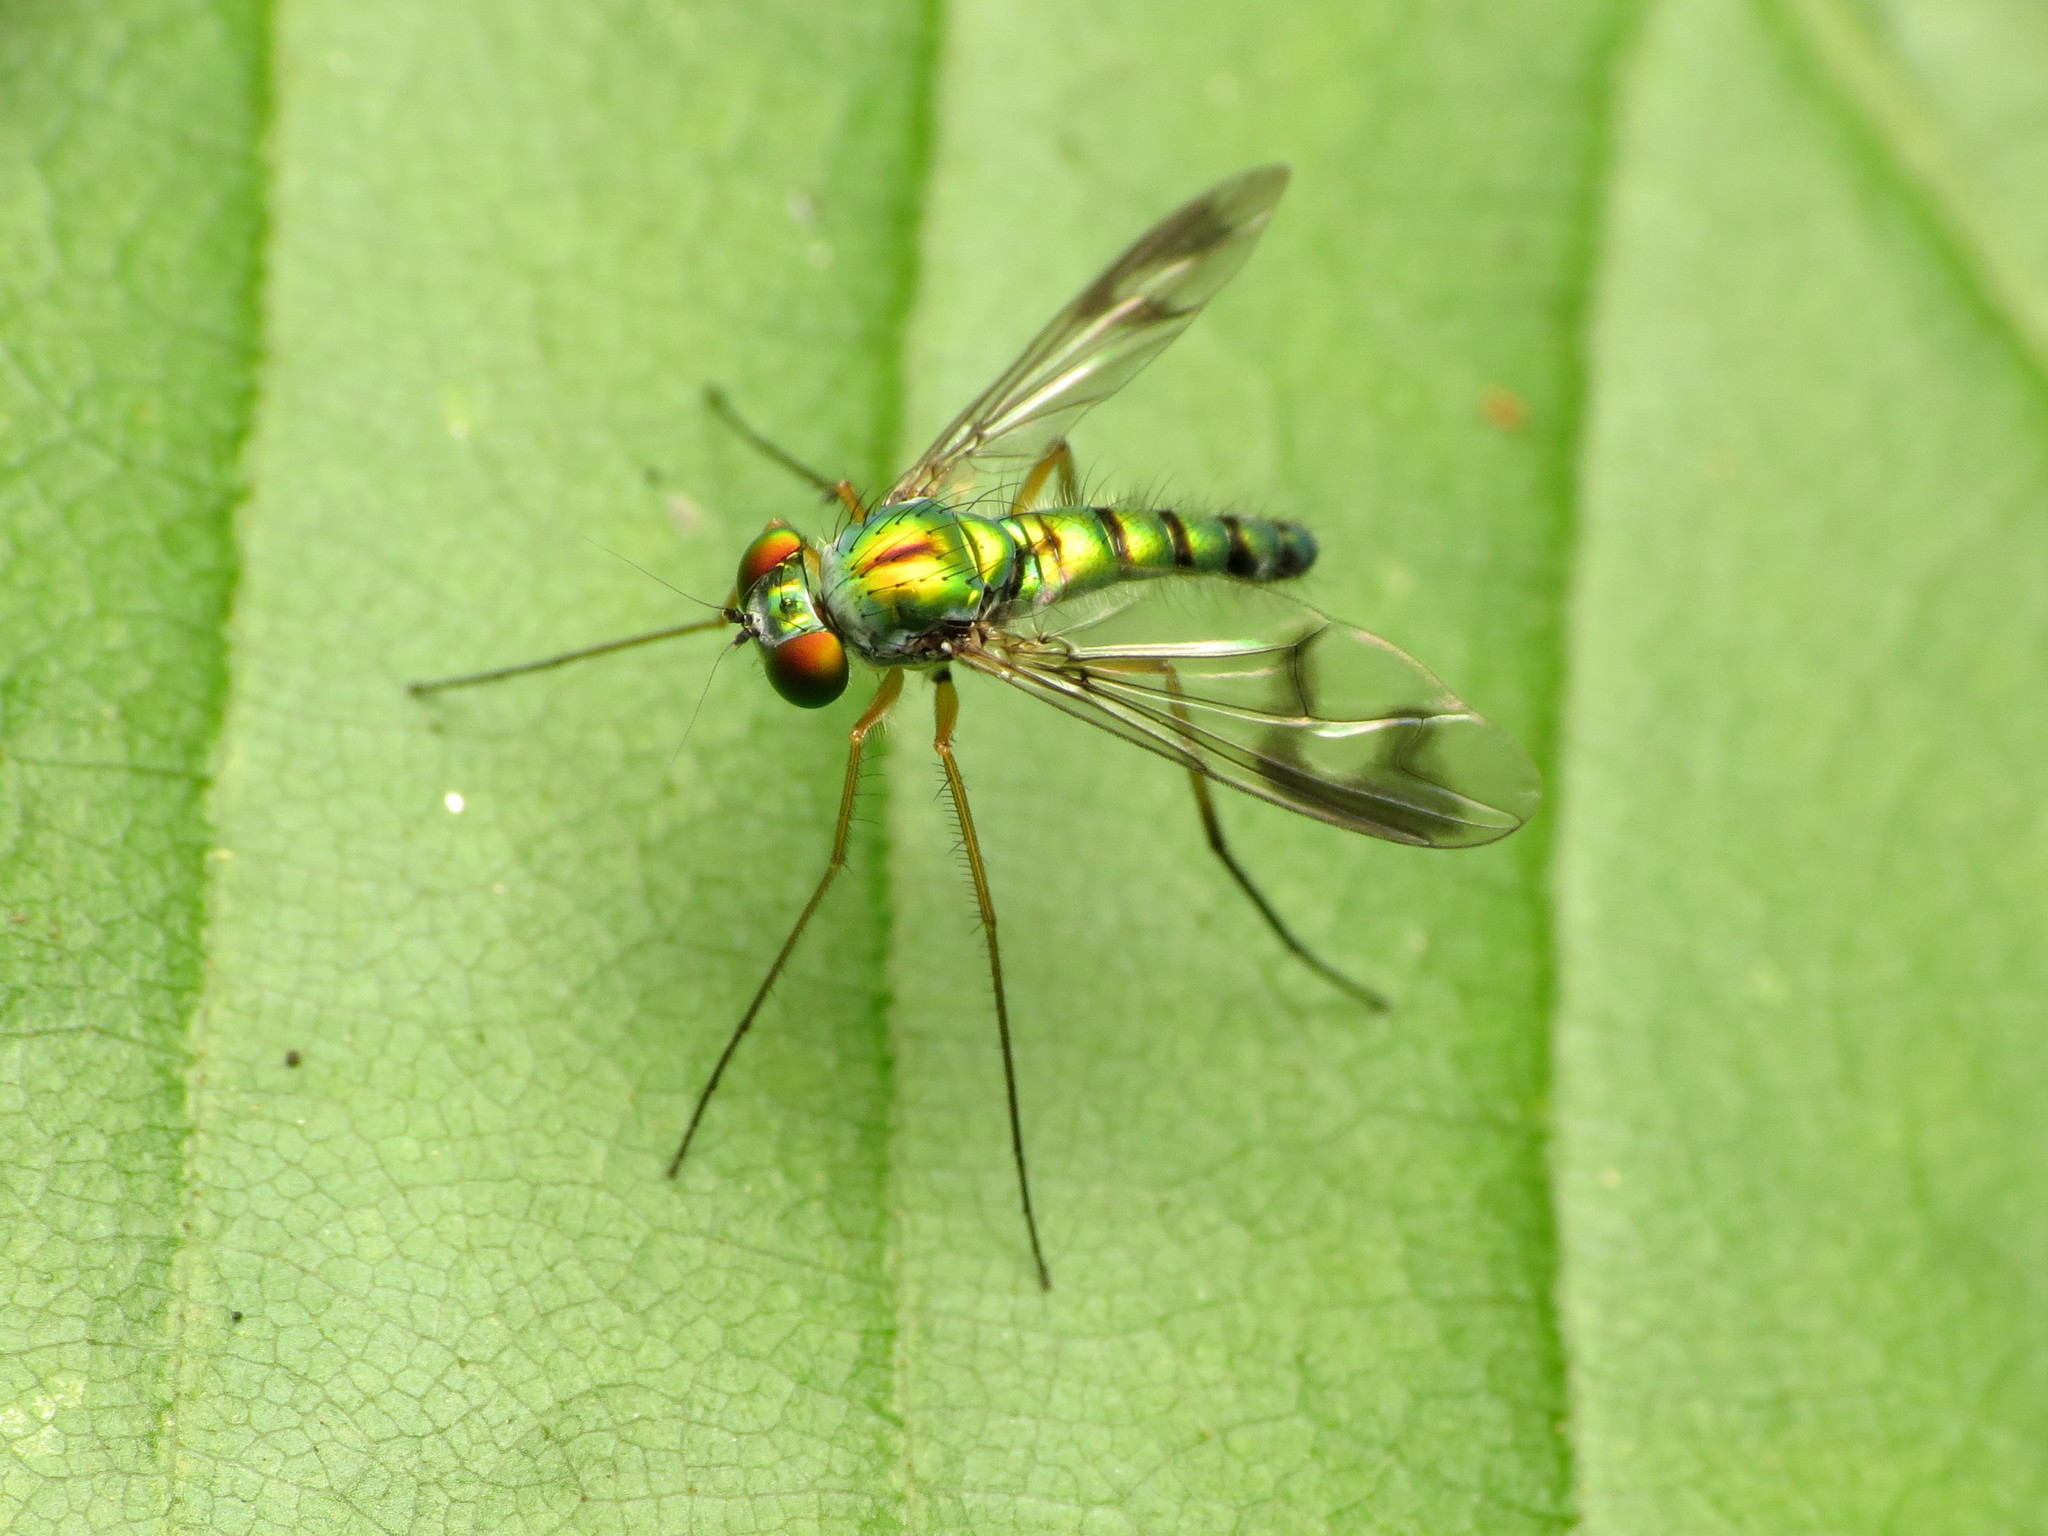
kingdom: Animalia
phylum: Arthropoda
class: Insecta
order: Diptera
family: Dolichopodidae
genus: Condylostylus
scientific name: Condylostylus
